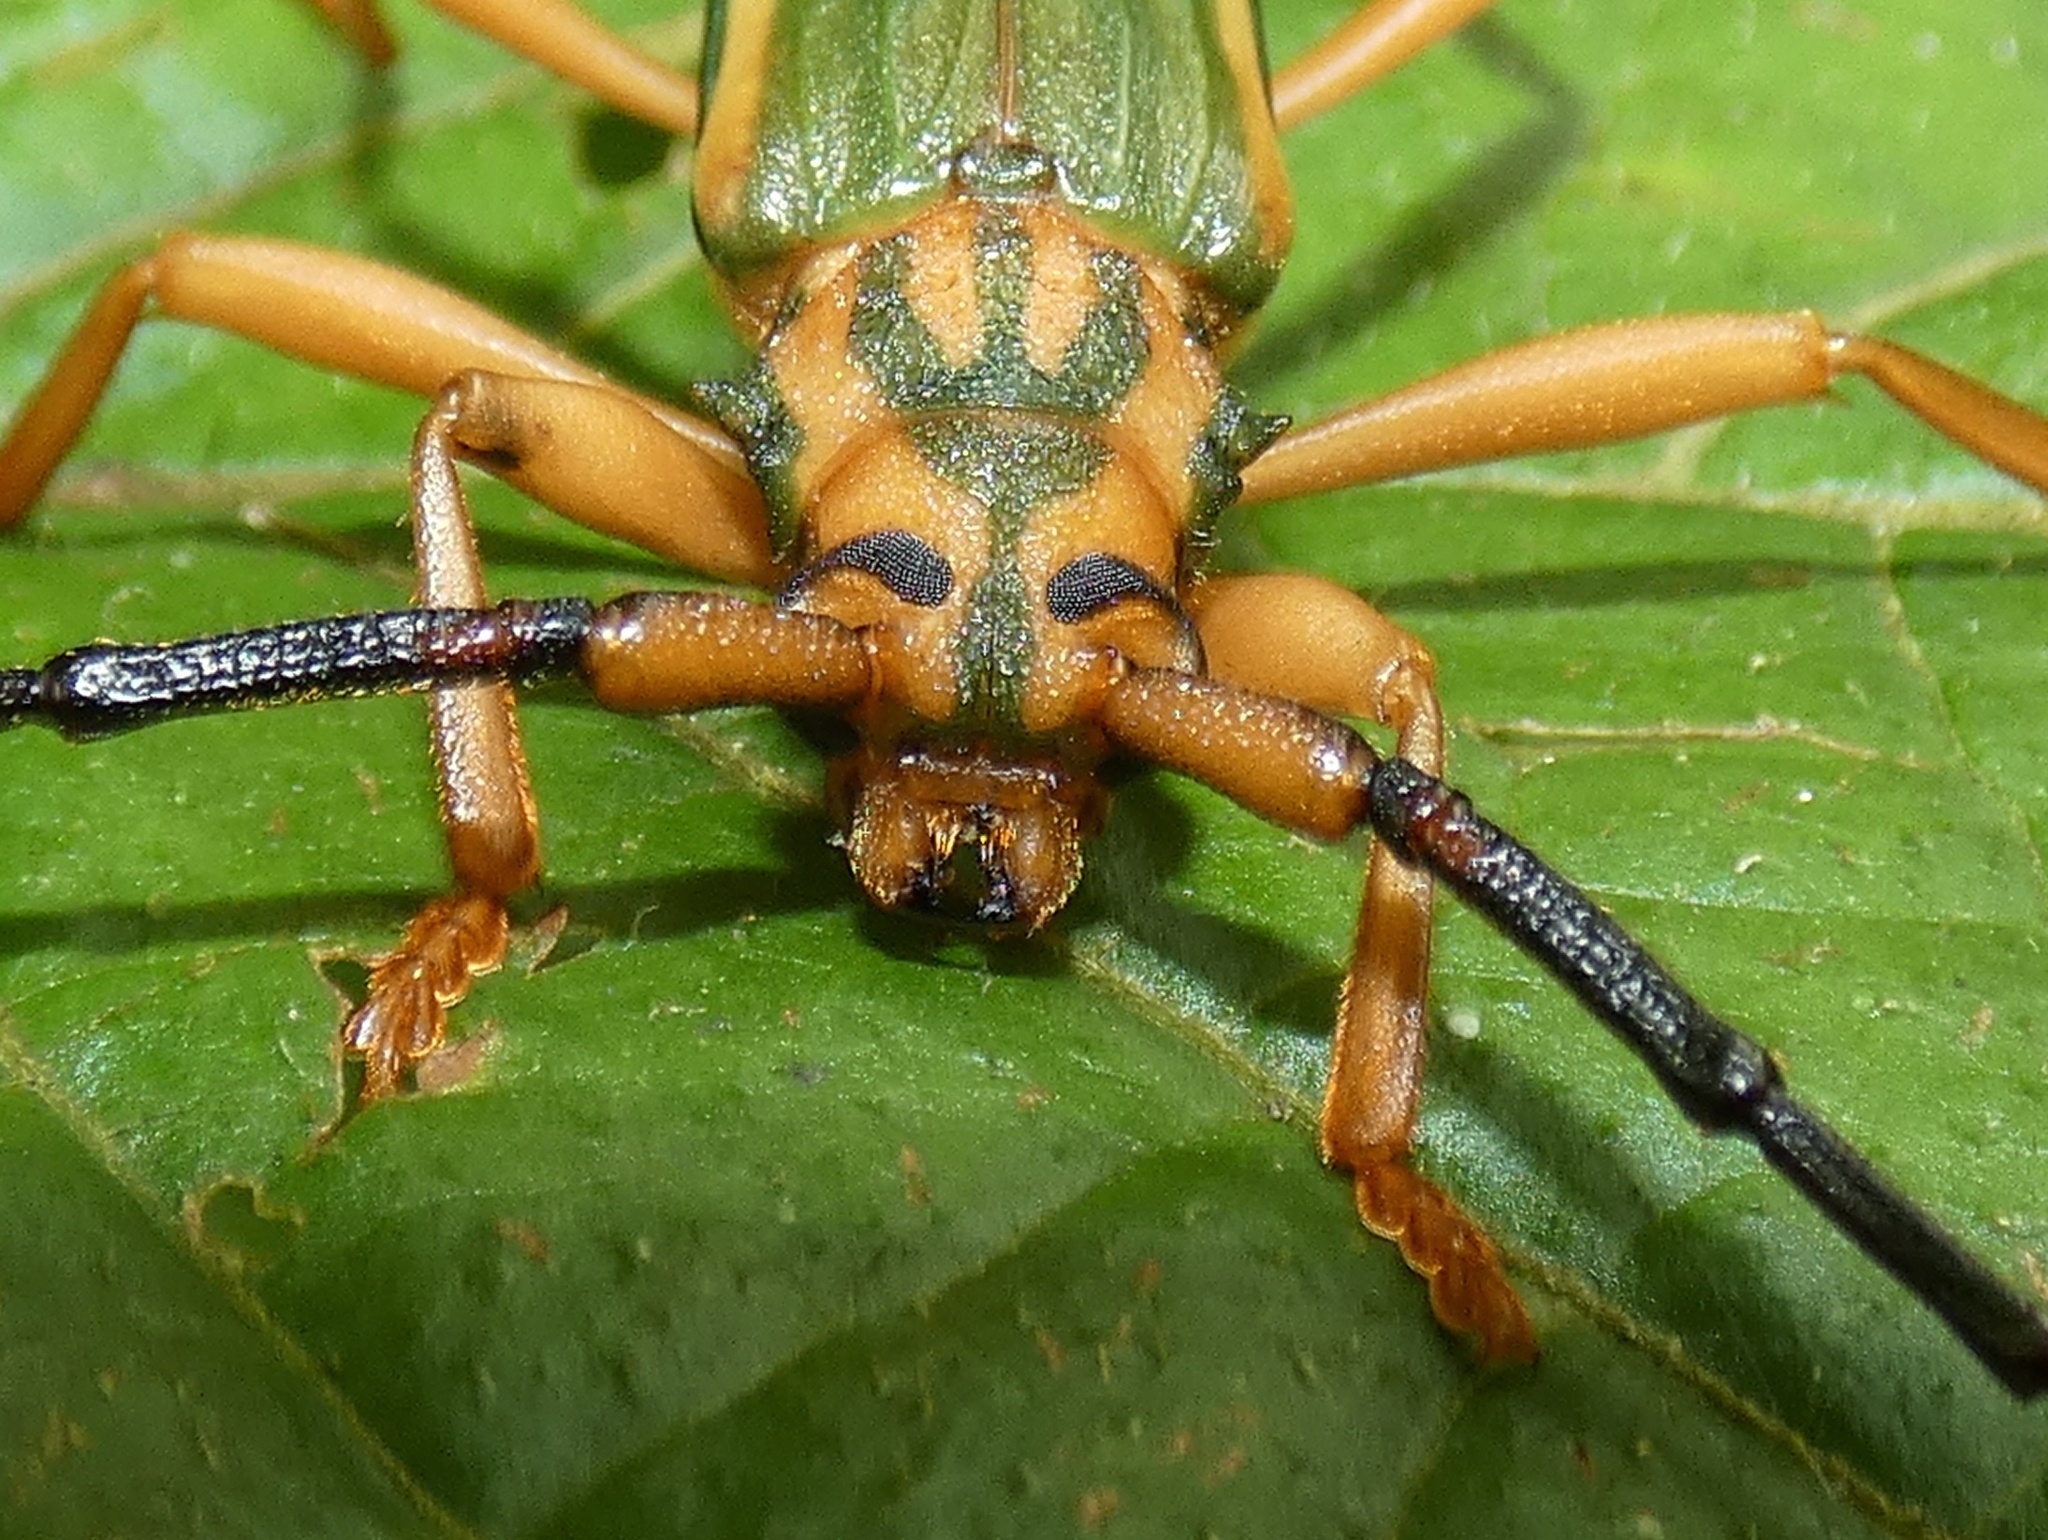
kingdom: Animalia
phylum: Arthropoda
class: Insecta
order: Coleoptera
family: Cerambycidae
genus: Chlorida
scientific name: Chlorida festiva
